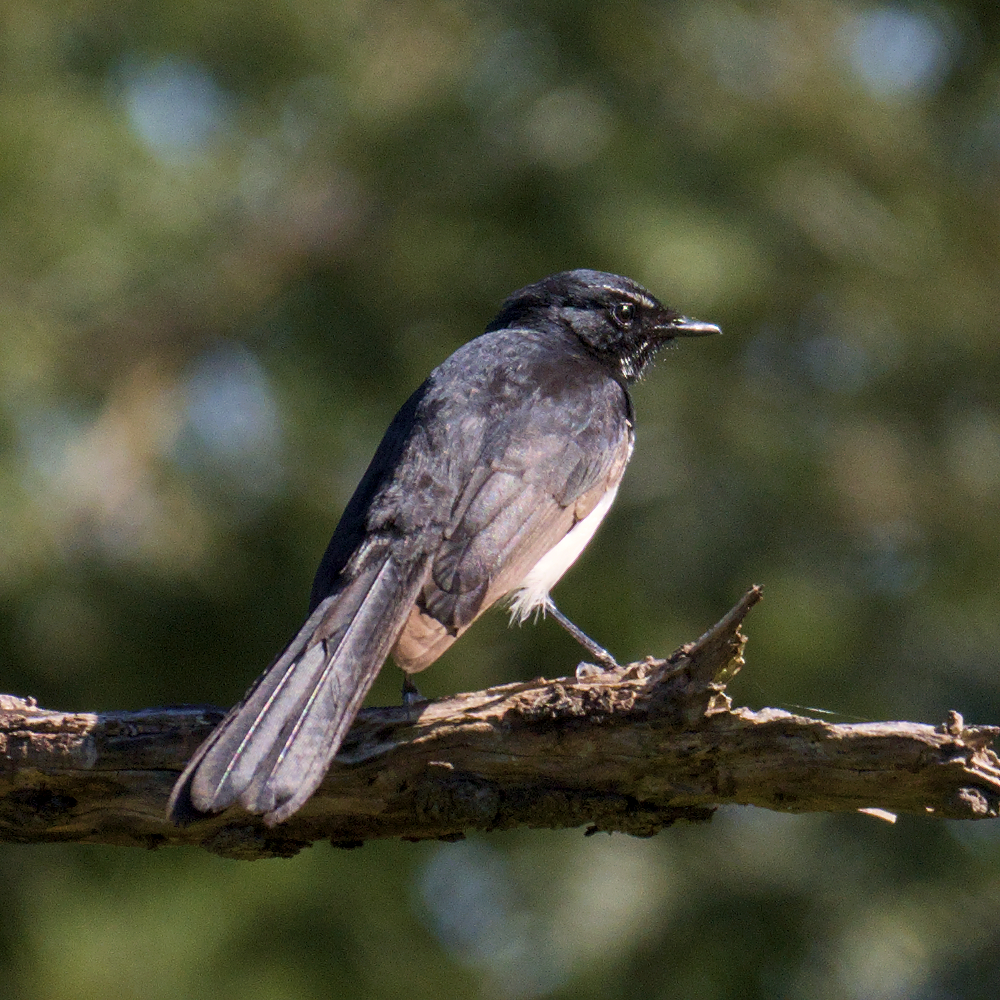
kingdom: Animalia
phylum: Chordata
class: Aves
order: Passeriformes
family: Rhipiduridae
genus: Rhipidura
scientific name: Rhipidura leucophrys
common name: Willie wagtail
